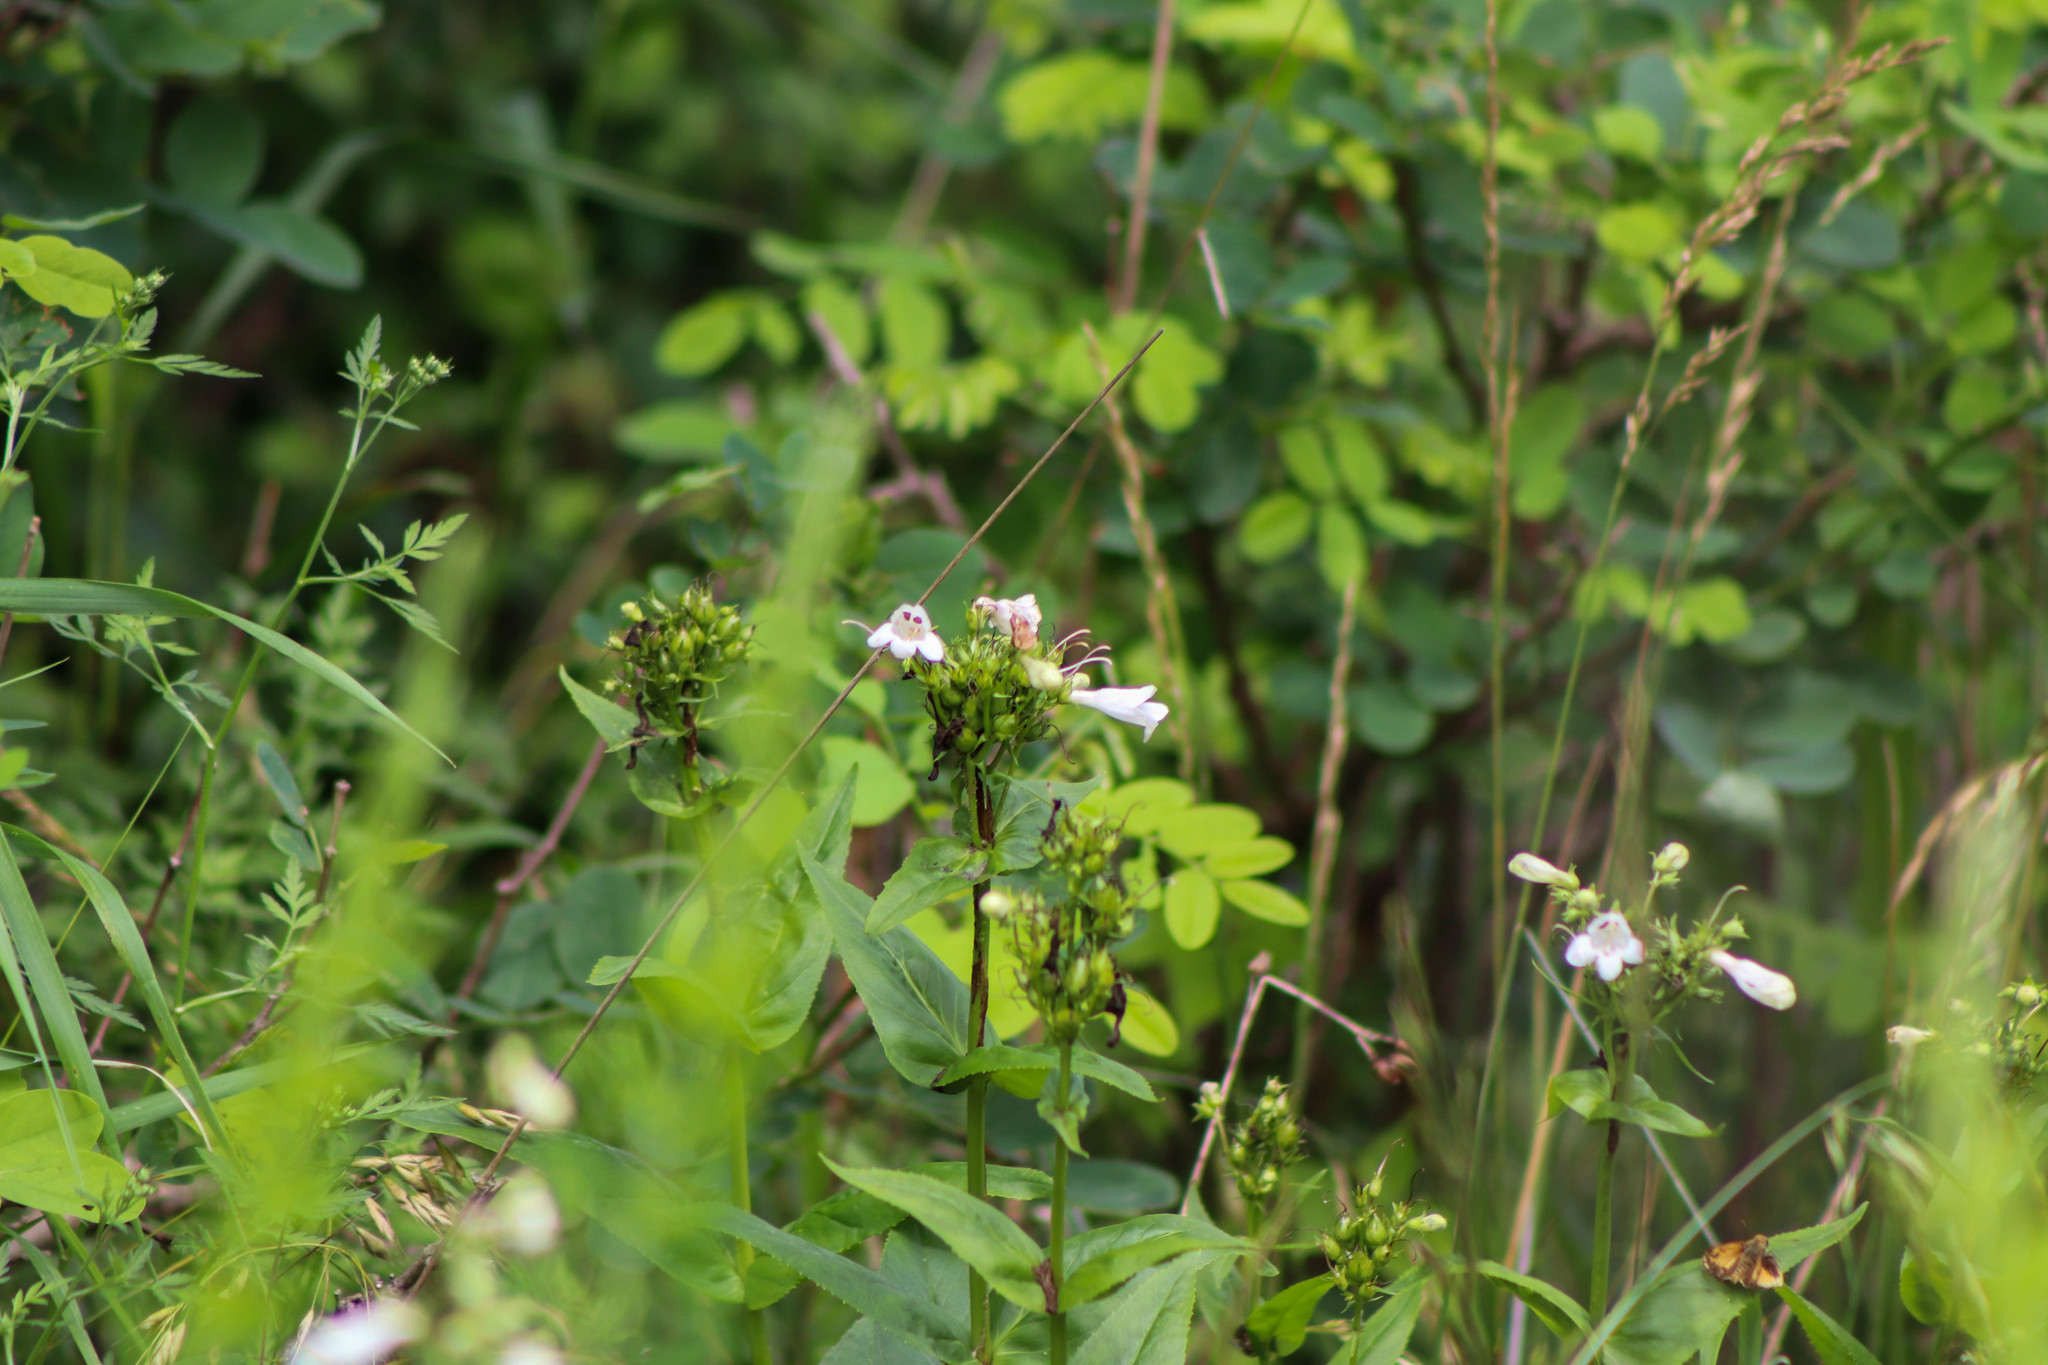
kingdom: Plantae
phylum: Tracheophyta
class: Magnoliopsida
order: Lamiales
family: Plantaginaceae
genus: Penstemon
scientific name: Penstemon digitalis
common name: Foxglove beardtongue
